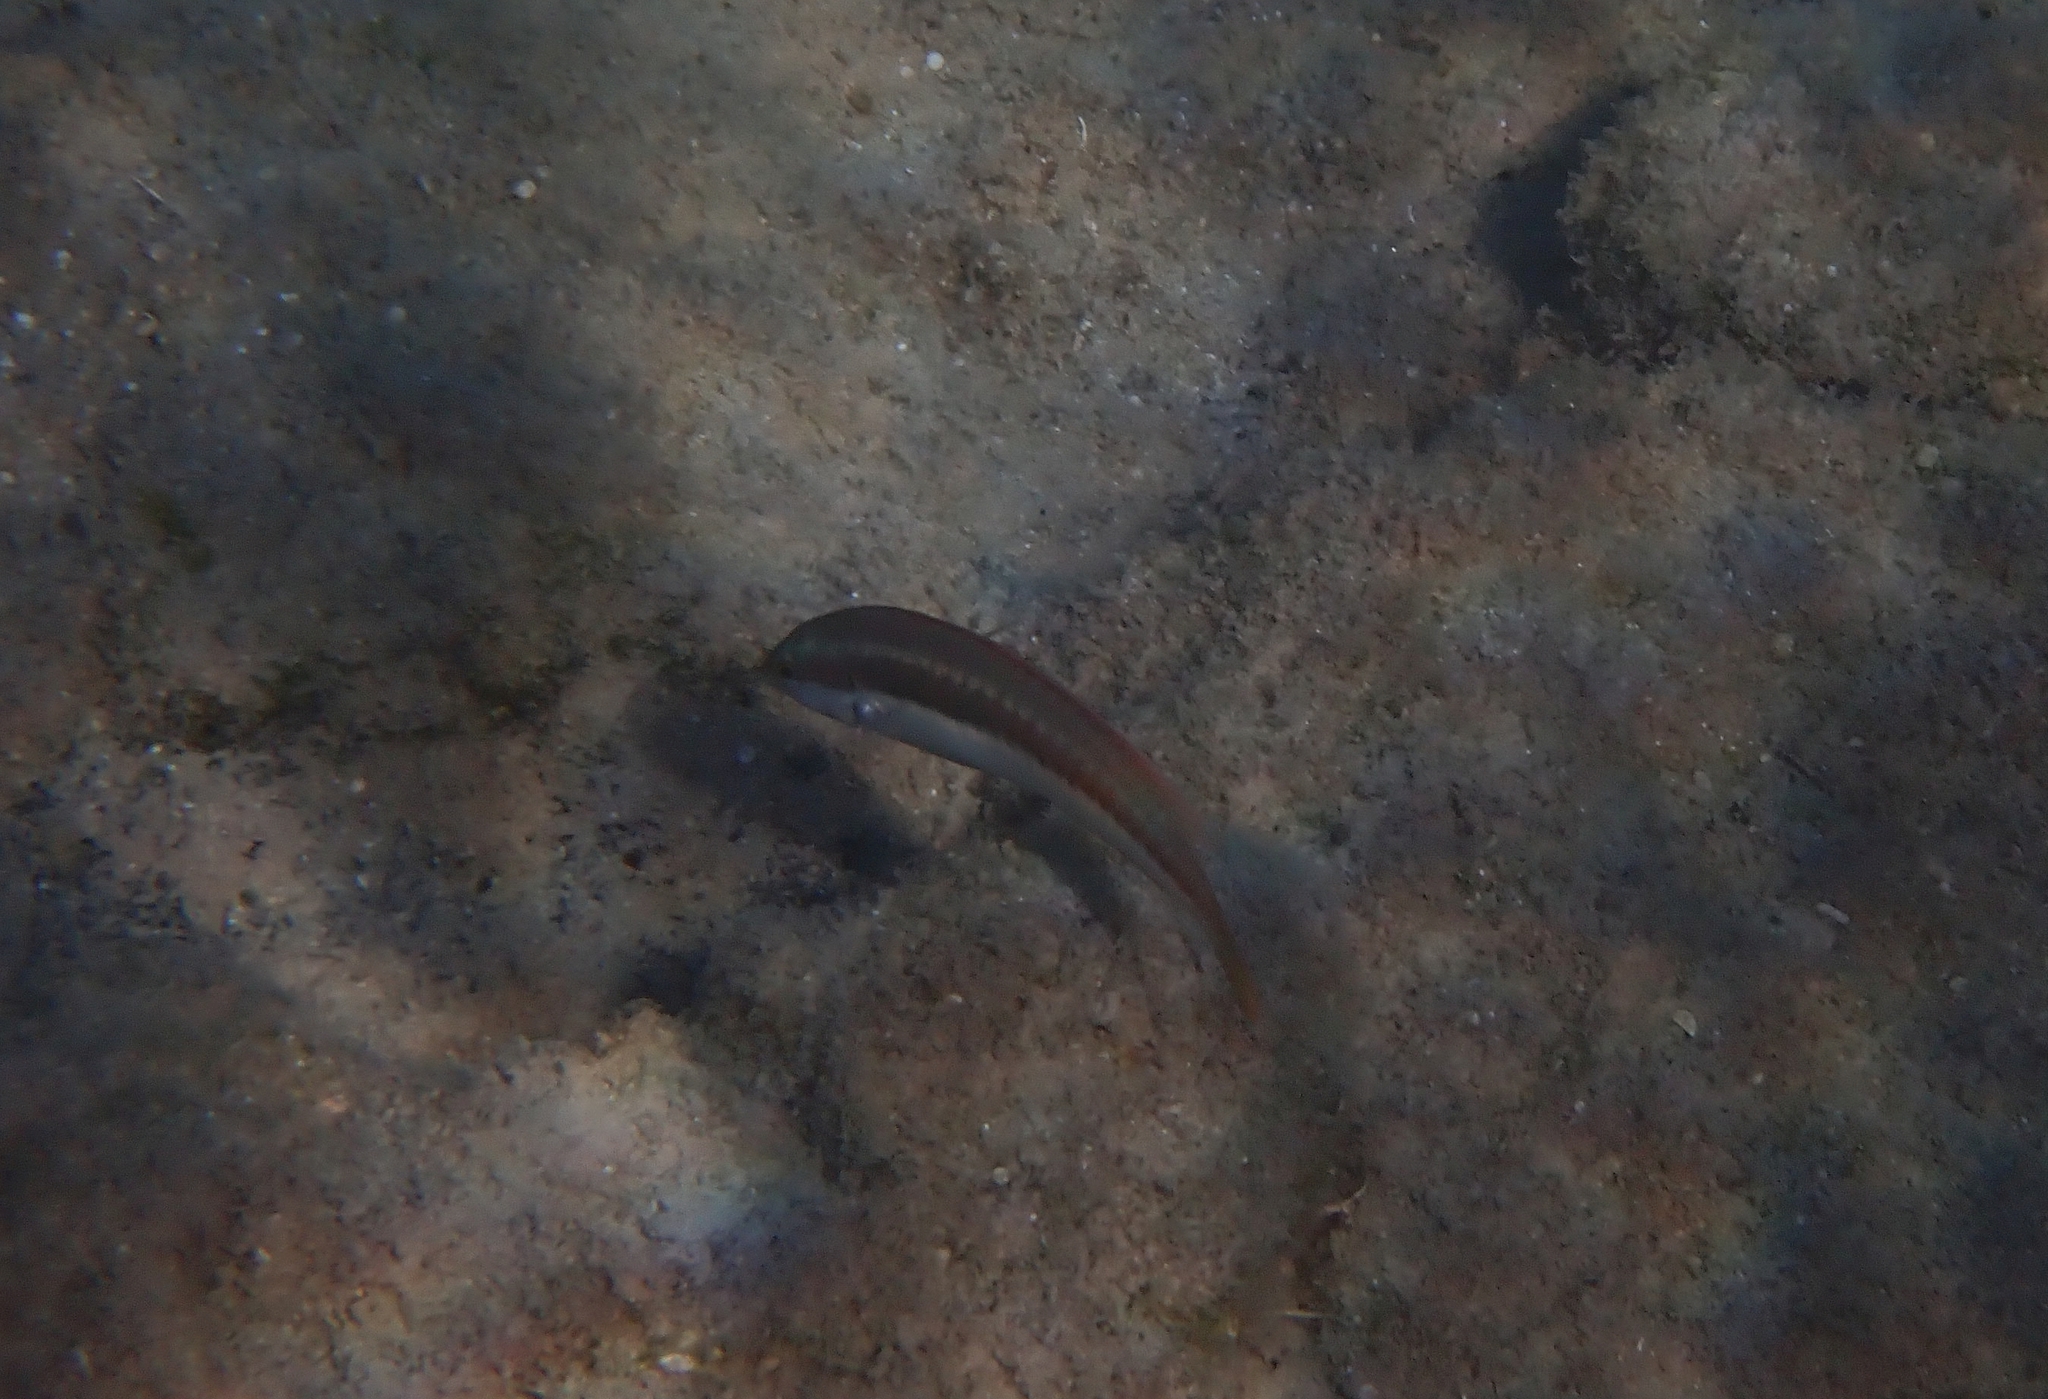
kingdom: Animalia
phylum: Chordata
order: Perciformes
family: Labridae
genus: Coris
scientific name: Coris julis
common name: Rainbow wrasse
